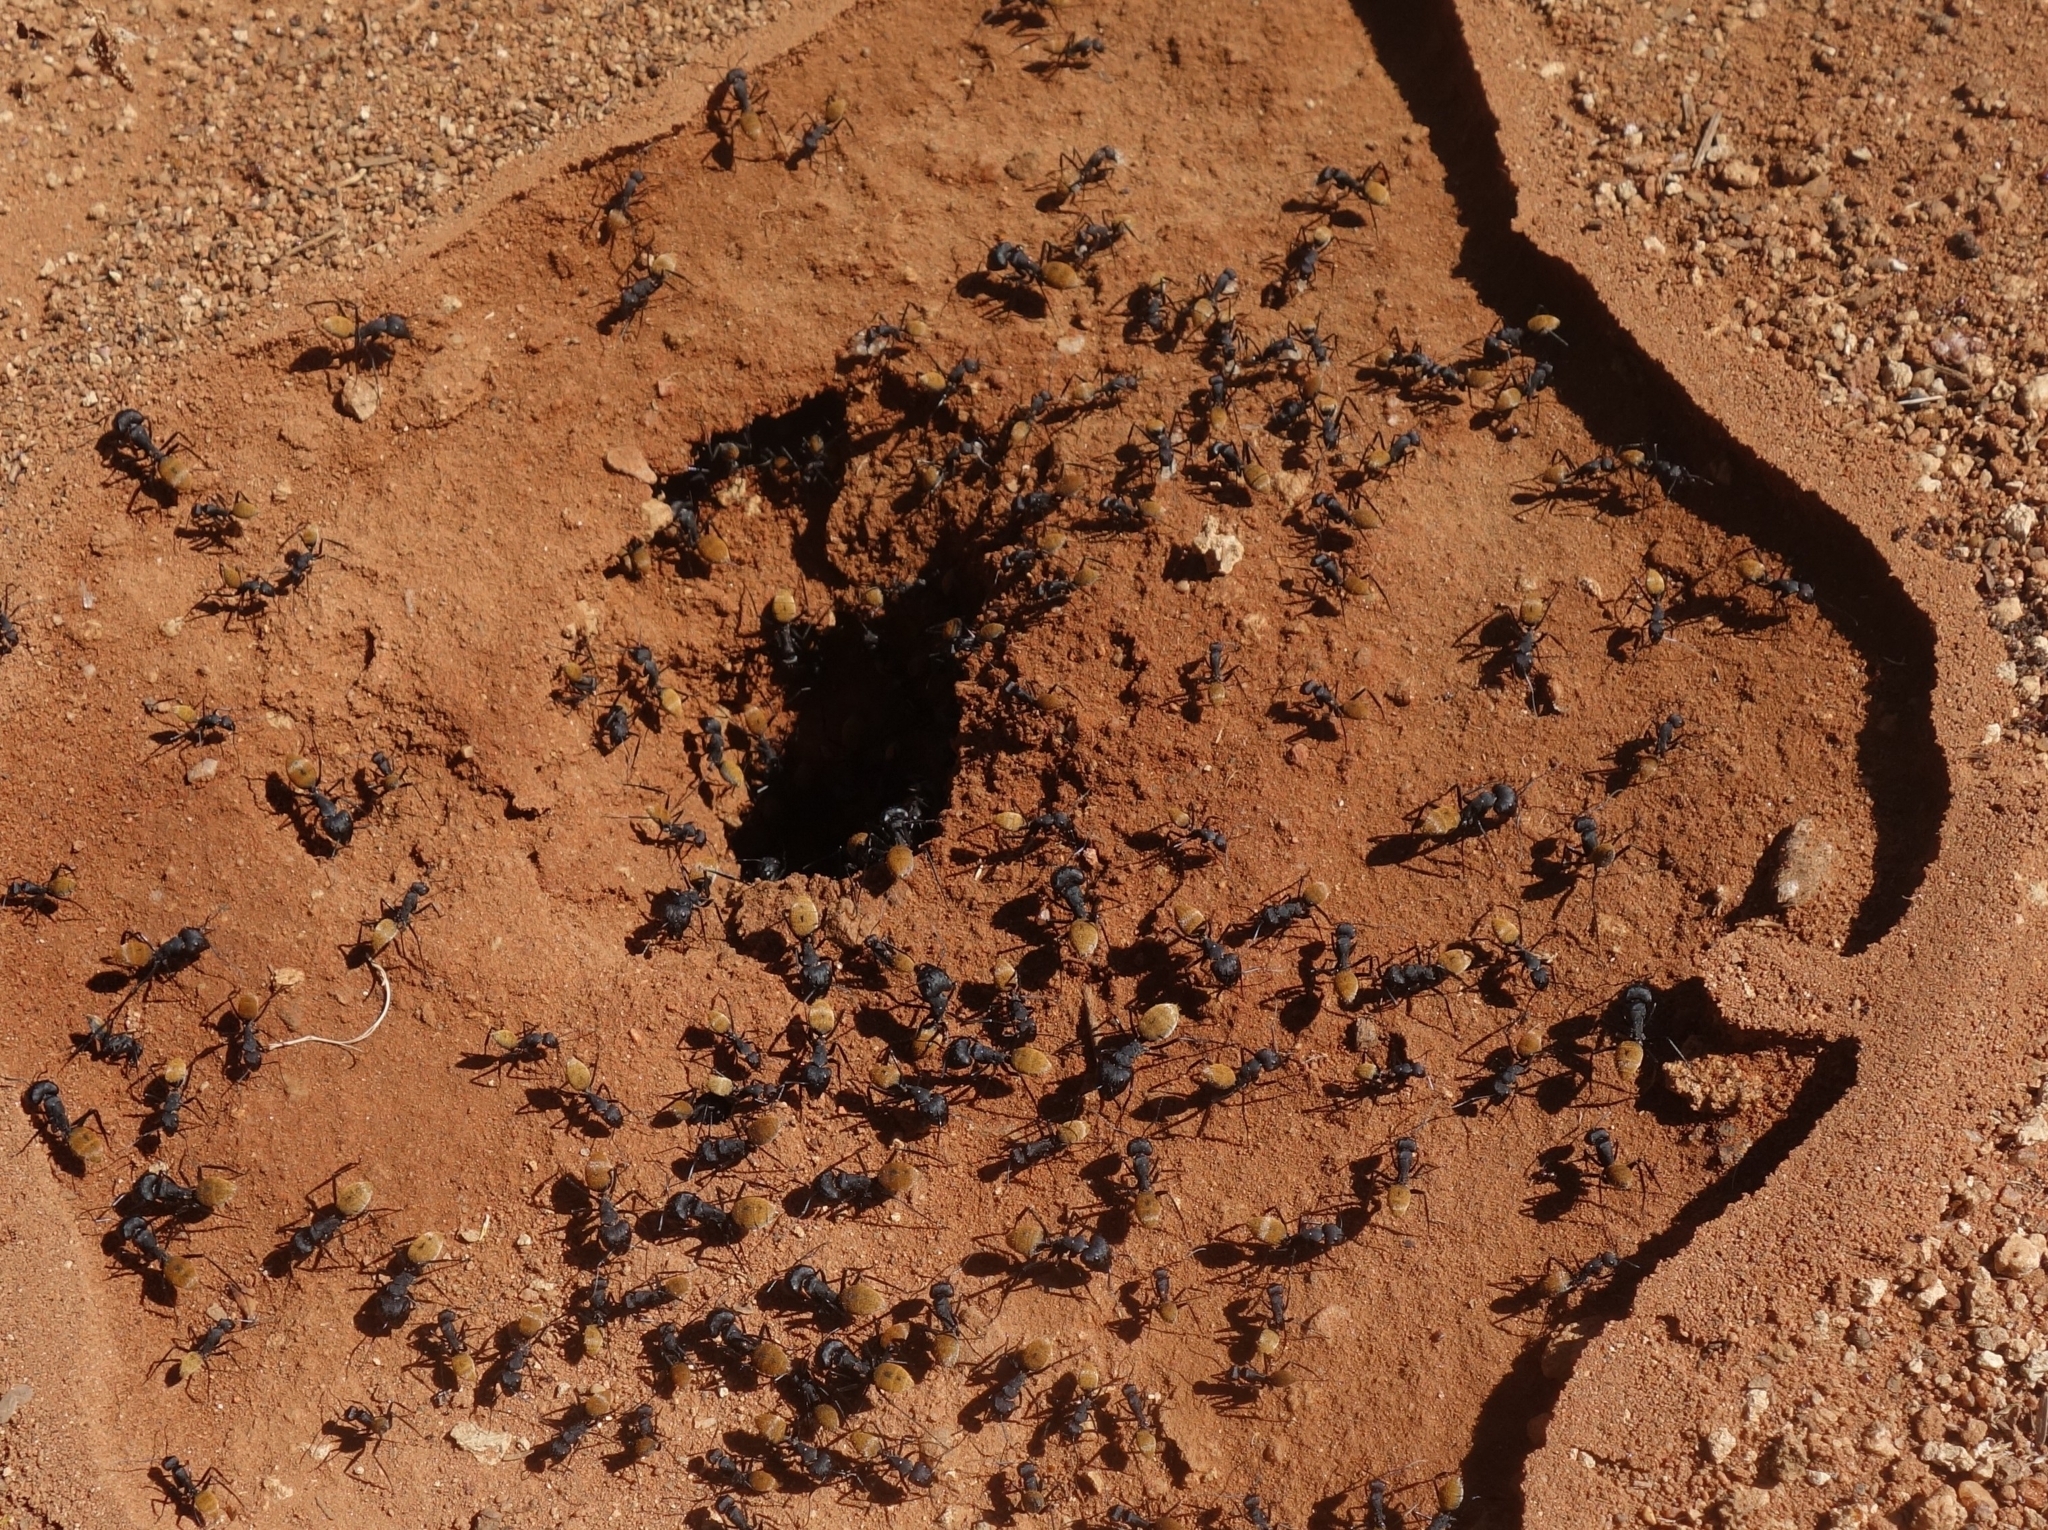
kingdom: Animalia
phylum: Arthropoda
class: Insecta
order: Hymenoptera
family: Formicidae
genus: Camponotus
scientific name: Camponotus fulvopilosus
